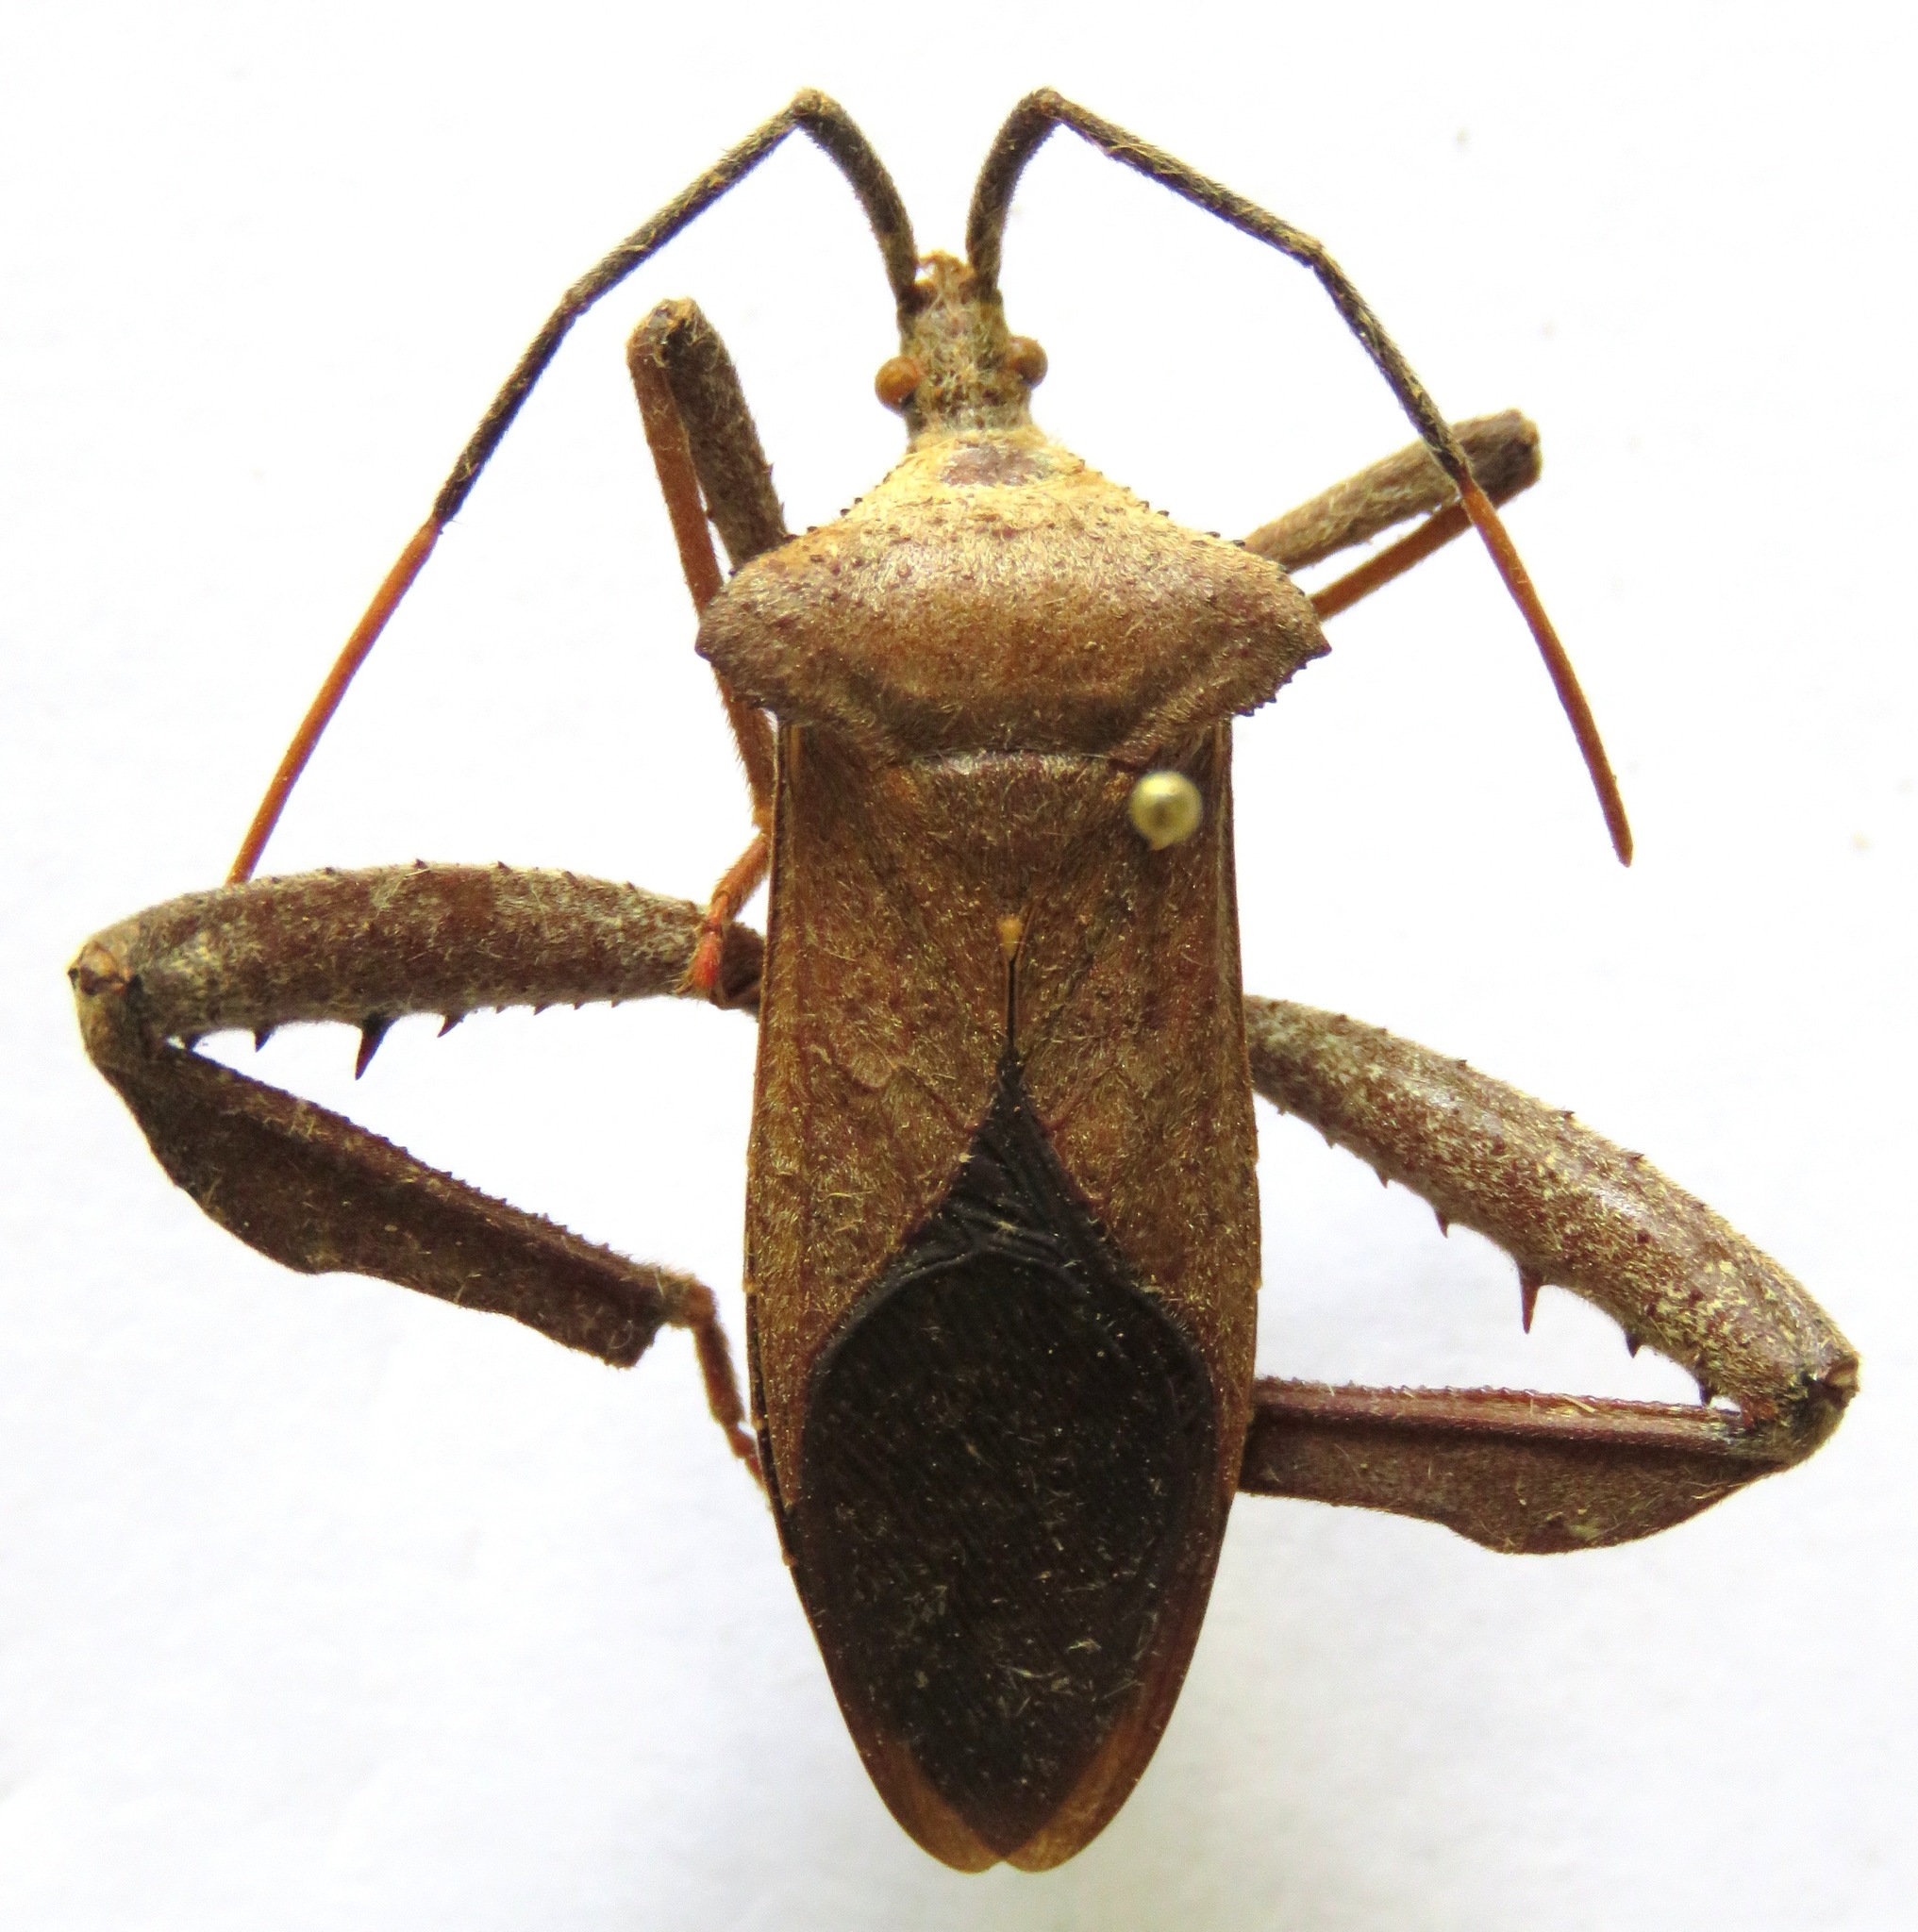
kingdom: Animalia
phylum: Arthropoda
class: Insecta
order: Hemiptera
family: Coreidae
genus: Acanthocephala
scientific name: Acanthocephala alata
